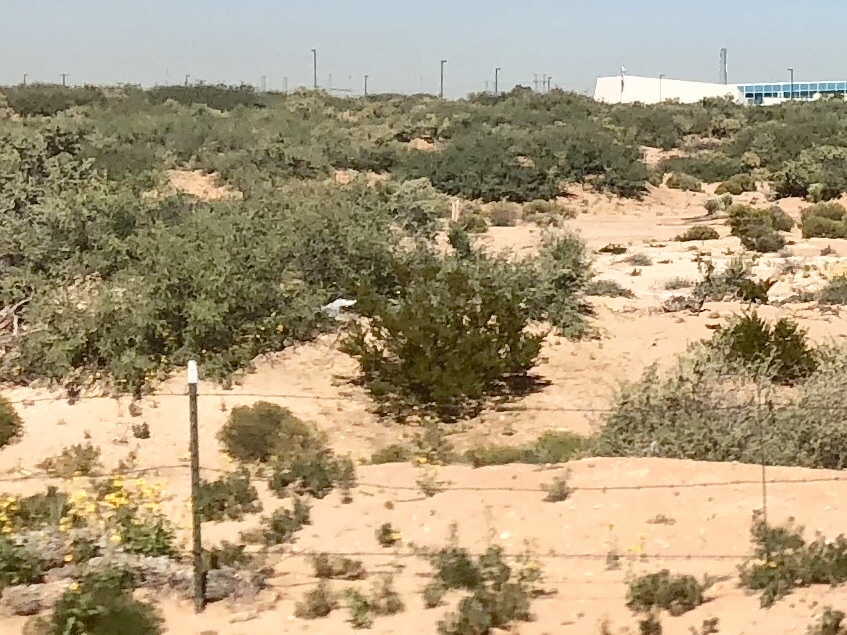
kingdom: Plantae
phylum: Tracheophyta
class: Magnoliopsida
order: Zygophyllales
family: Zygophyllaceae
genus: Larrea
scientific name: Larrea tridentata
